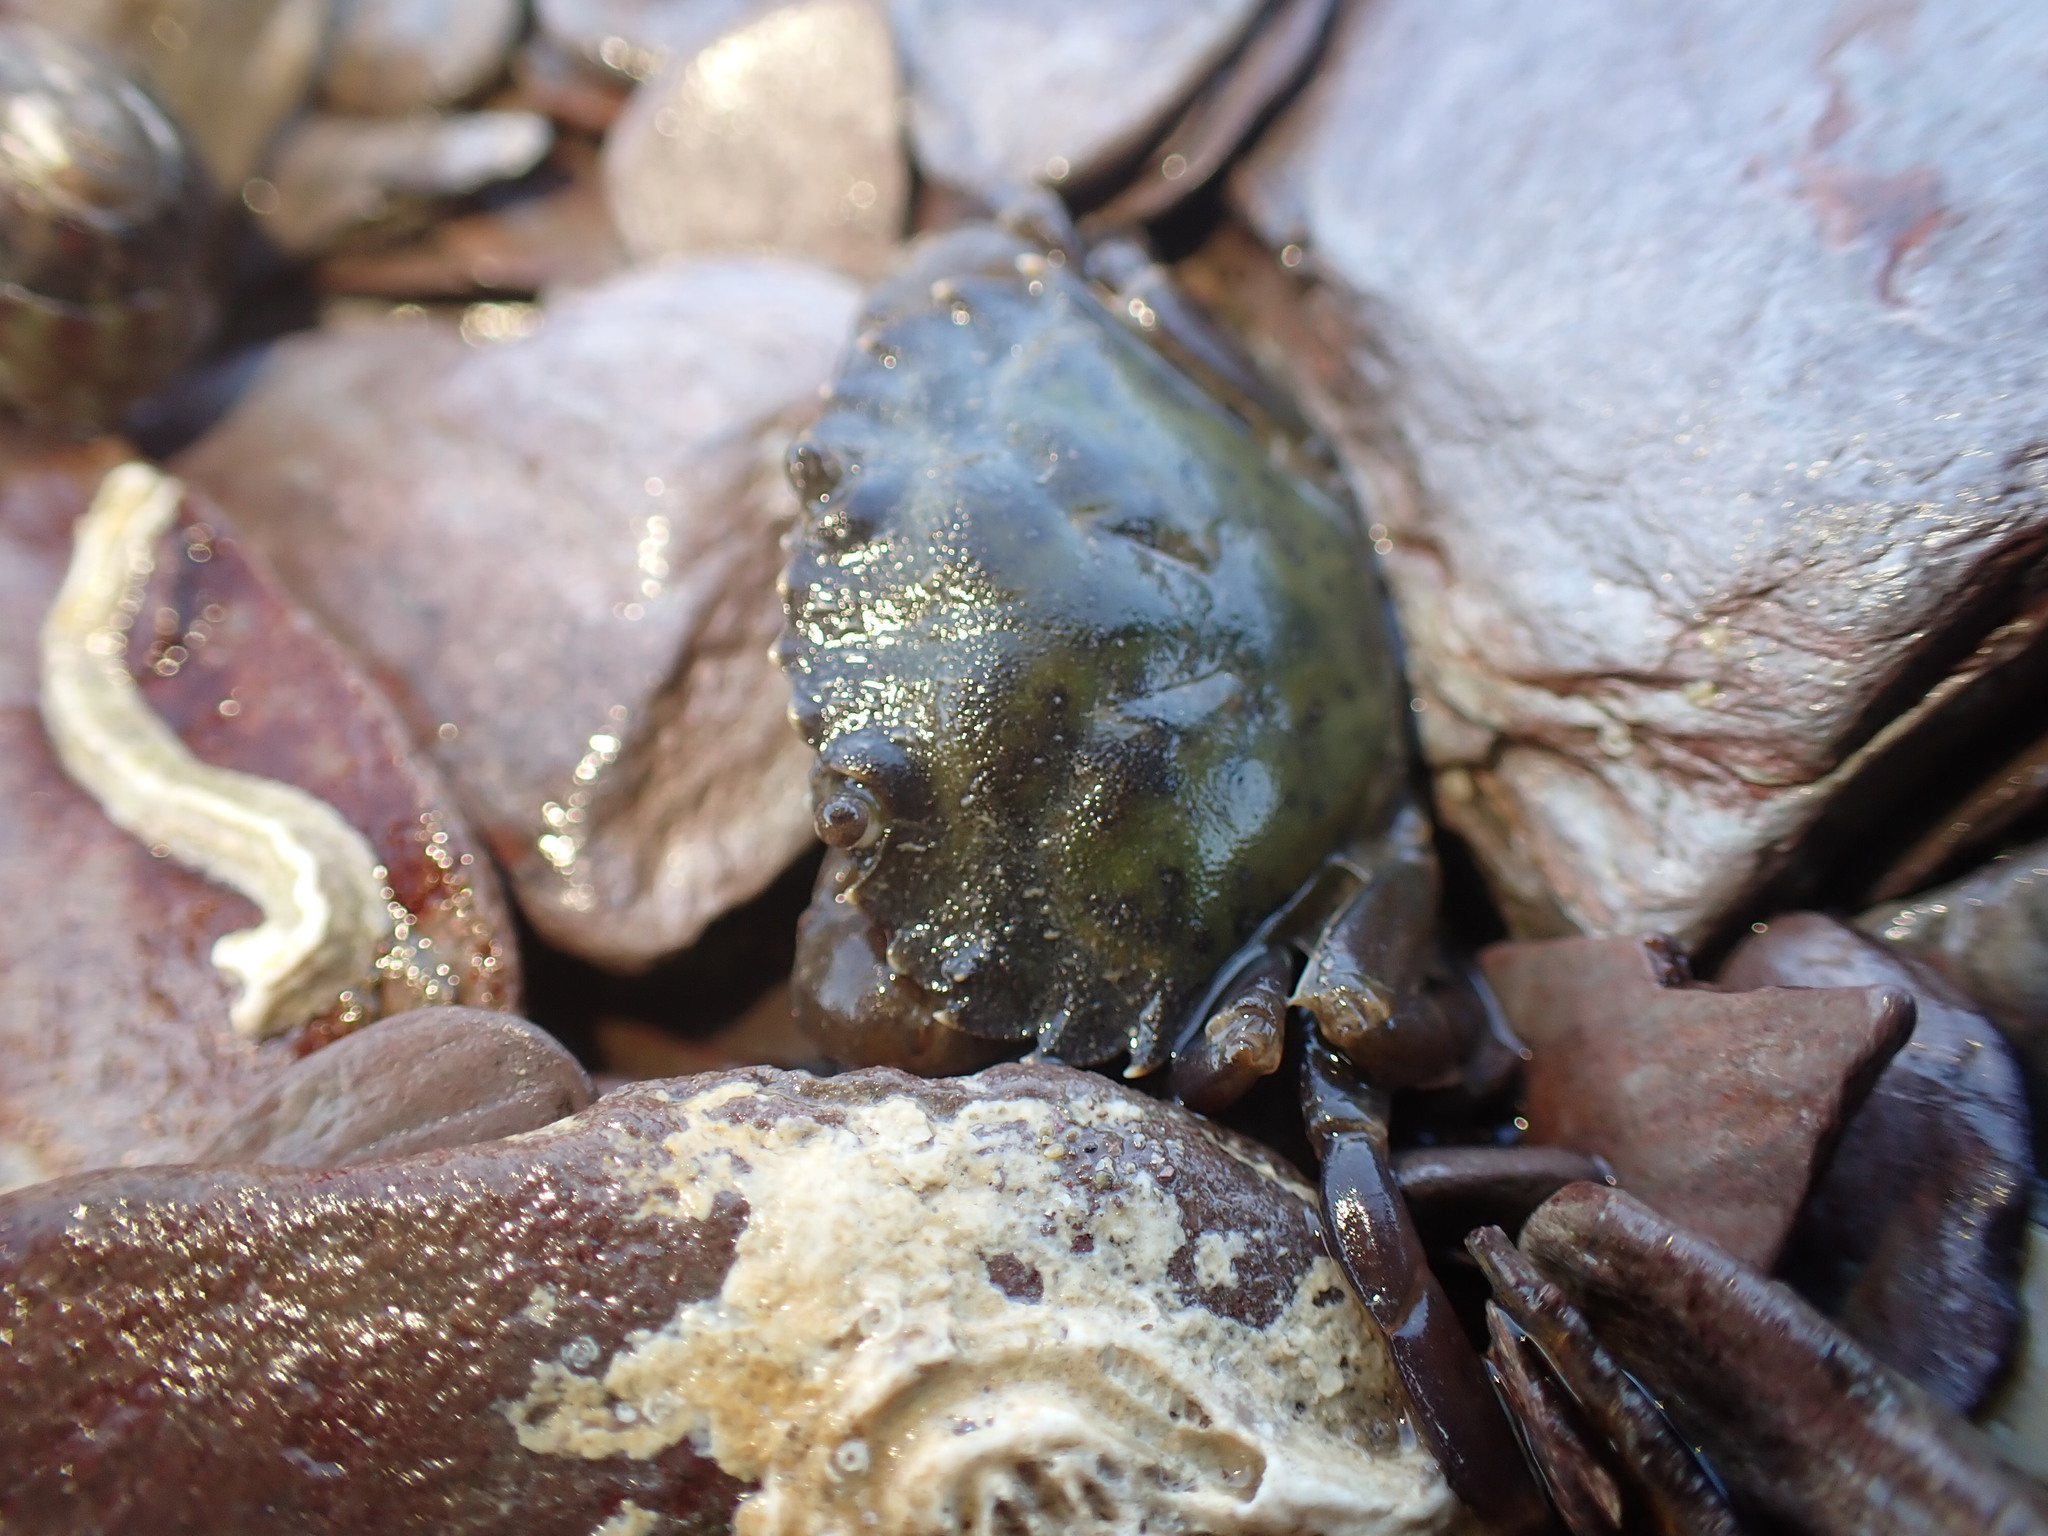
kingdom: Animalia
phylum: Arthropoda
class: Malacostraca
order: Decapoda
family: Carcinidae
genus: Carcinus
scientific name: Carcinus maenas
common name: European green crab
